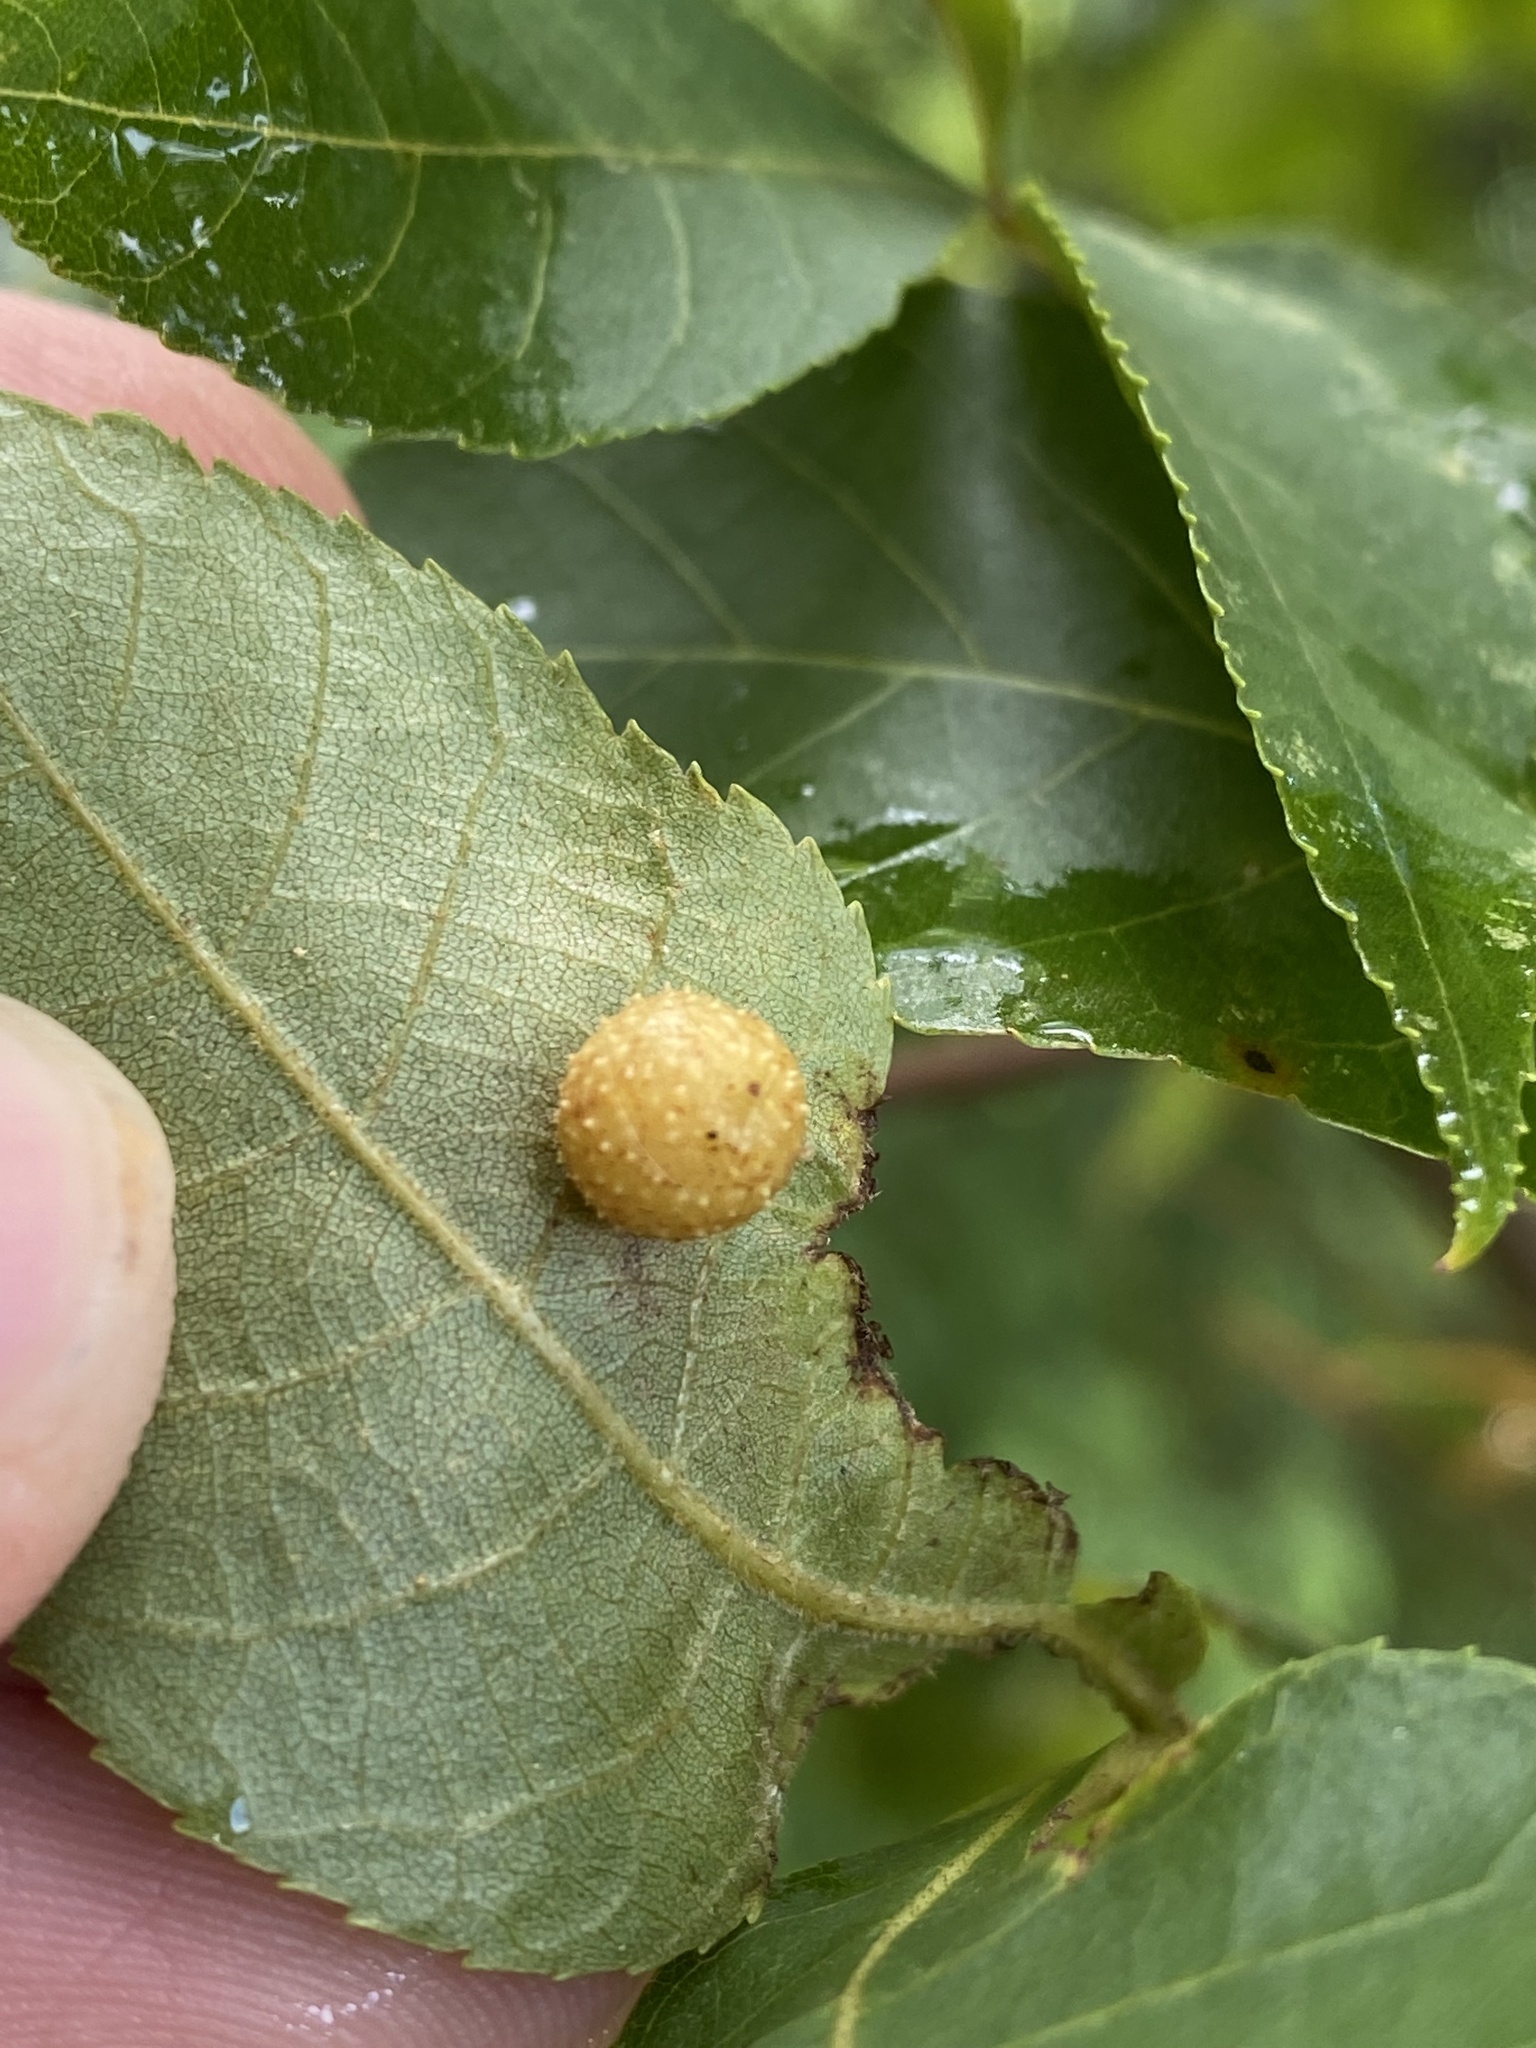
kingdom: Animalia
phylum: Arthropoda
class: Insecta
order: Diptera
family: Cecidomyiidae
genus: Caryomyia
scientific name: Caryomyia tuberculata
